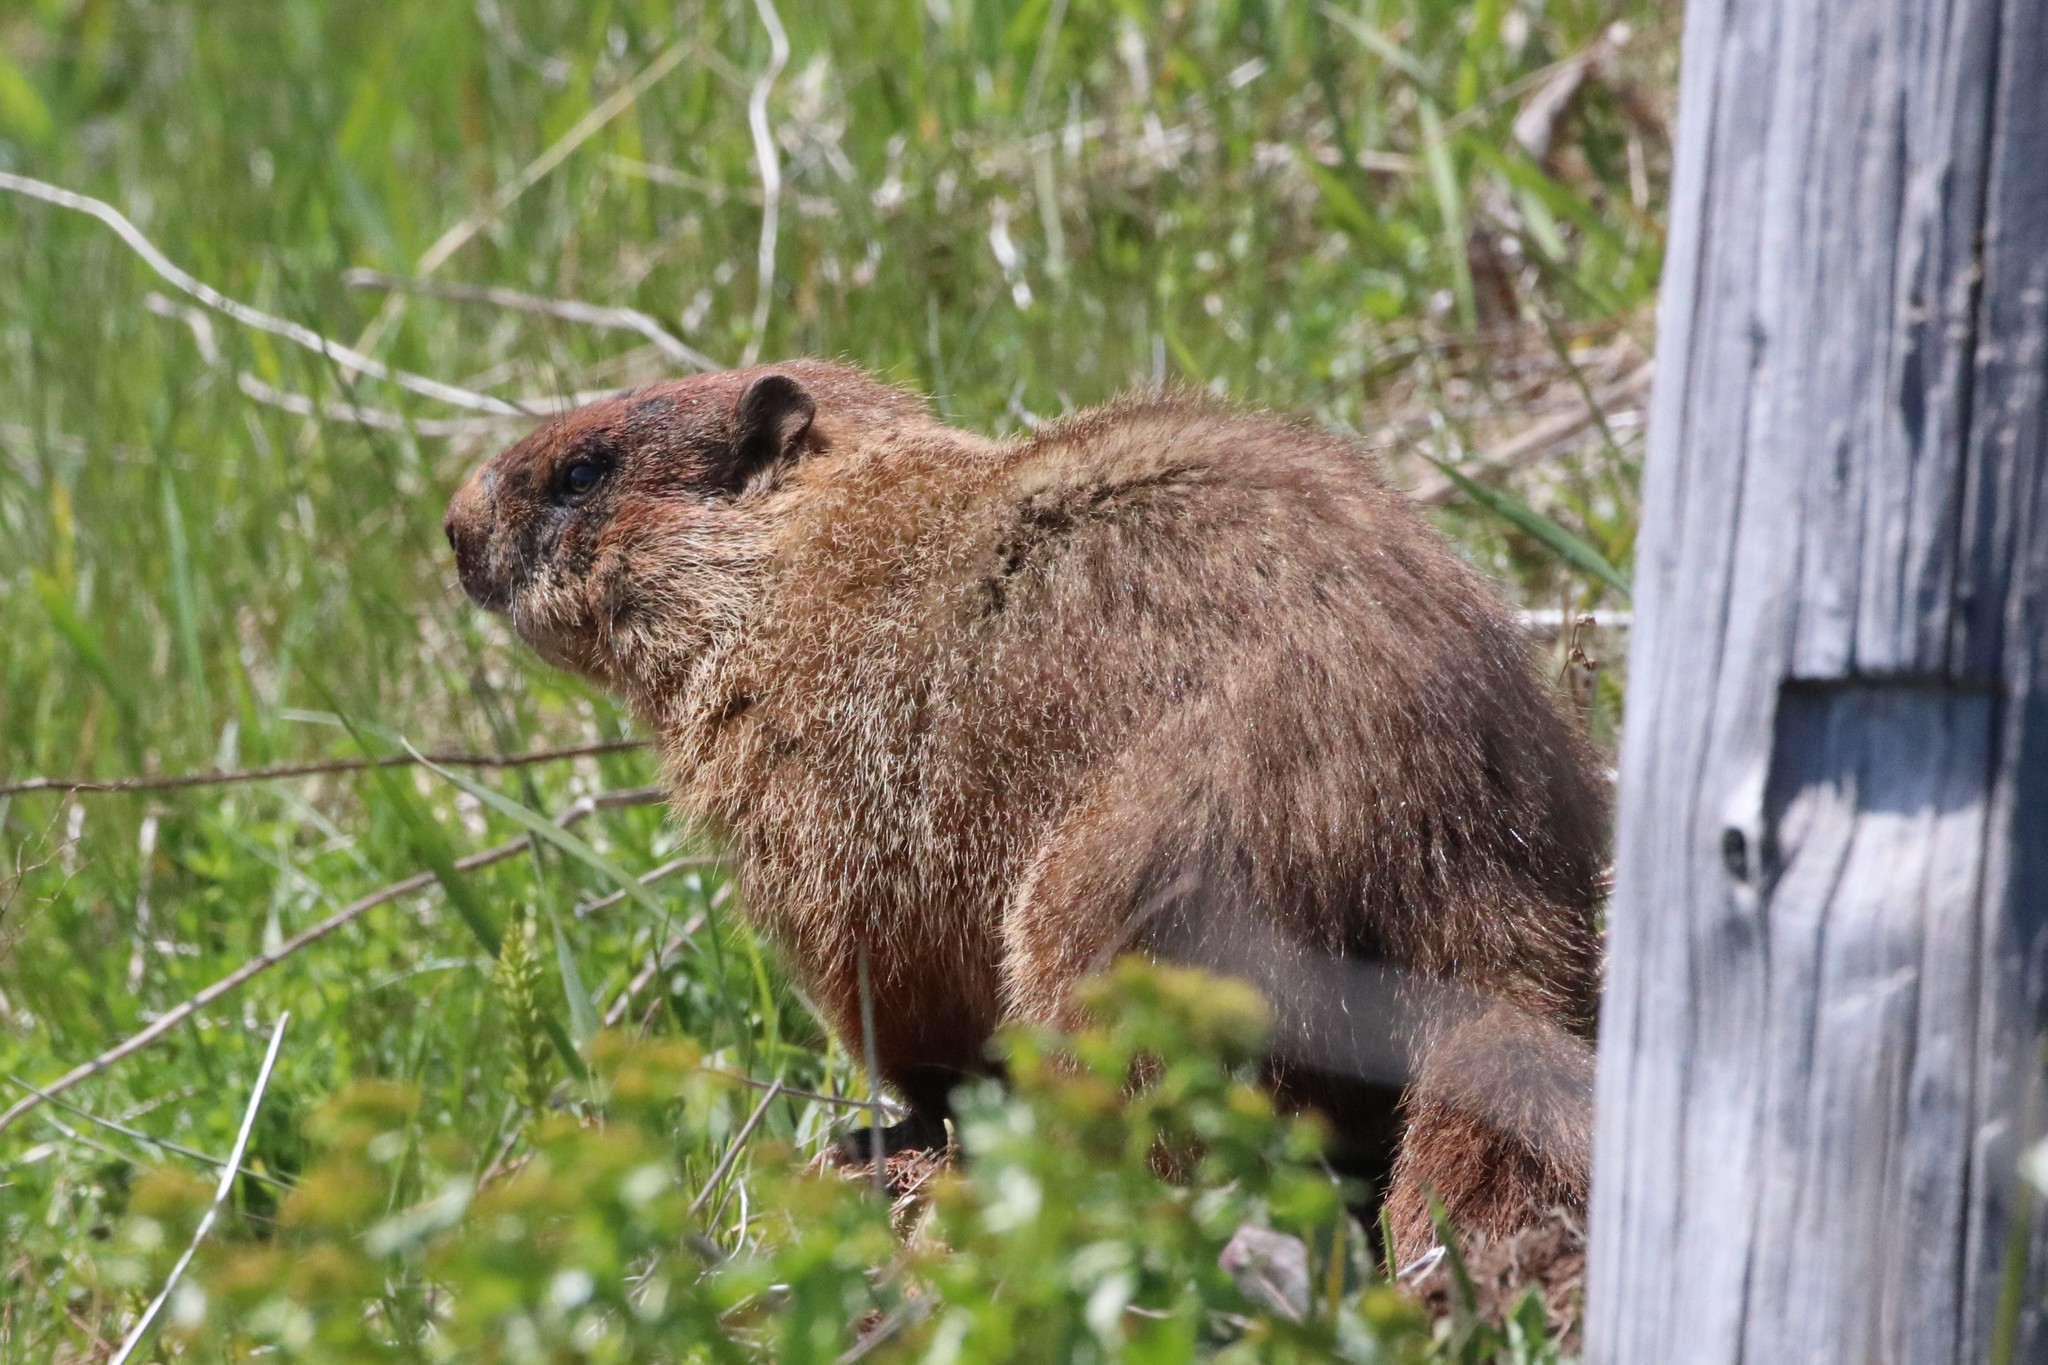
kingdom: Animalia
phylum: Chordata
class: Mammalia
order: Rodentia
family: Sciuridae
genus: Marmota
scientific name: Marmota monax
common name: Groundhog
